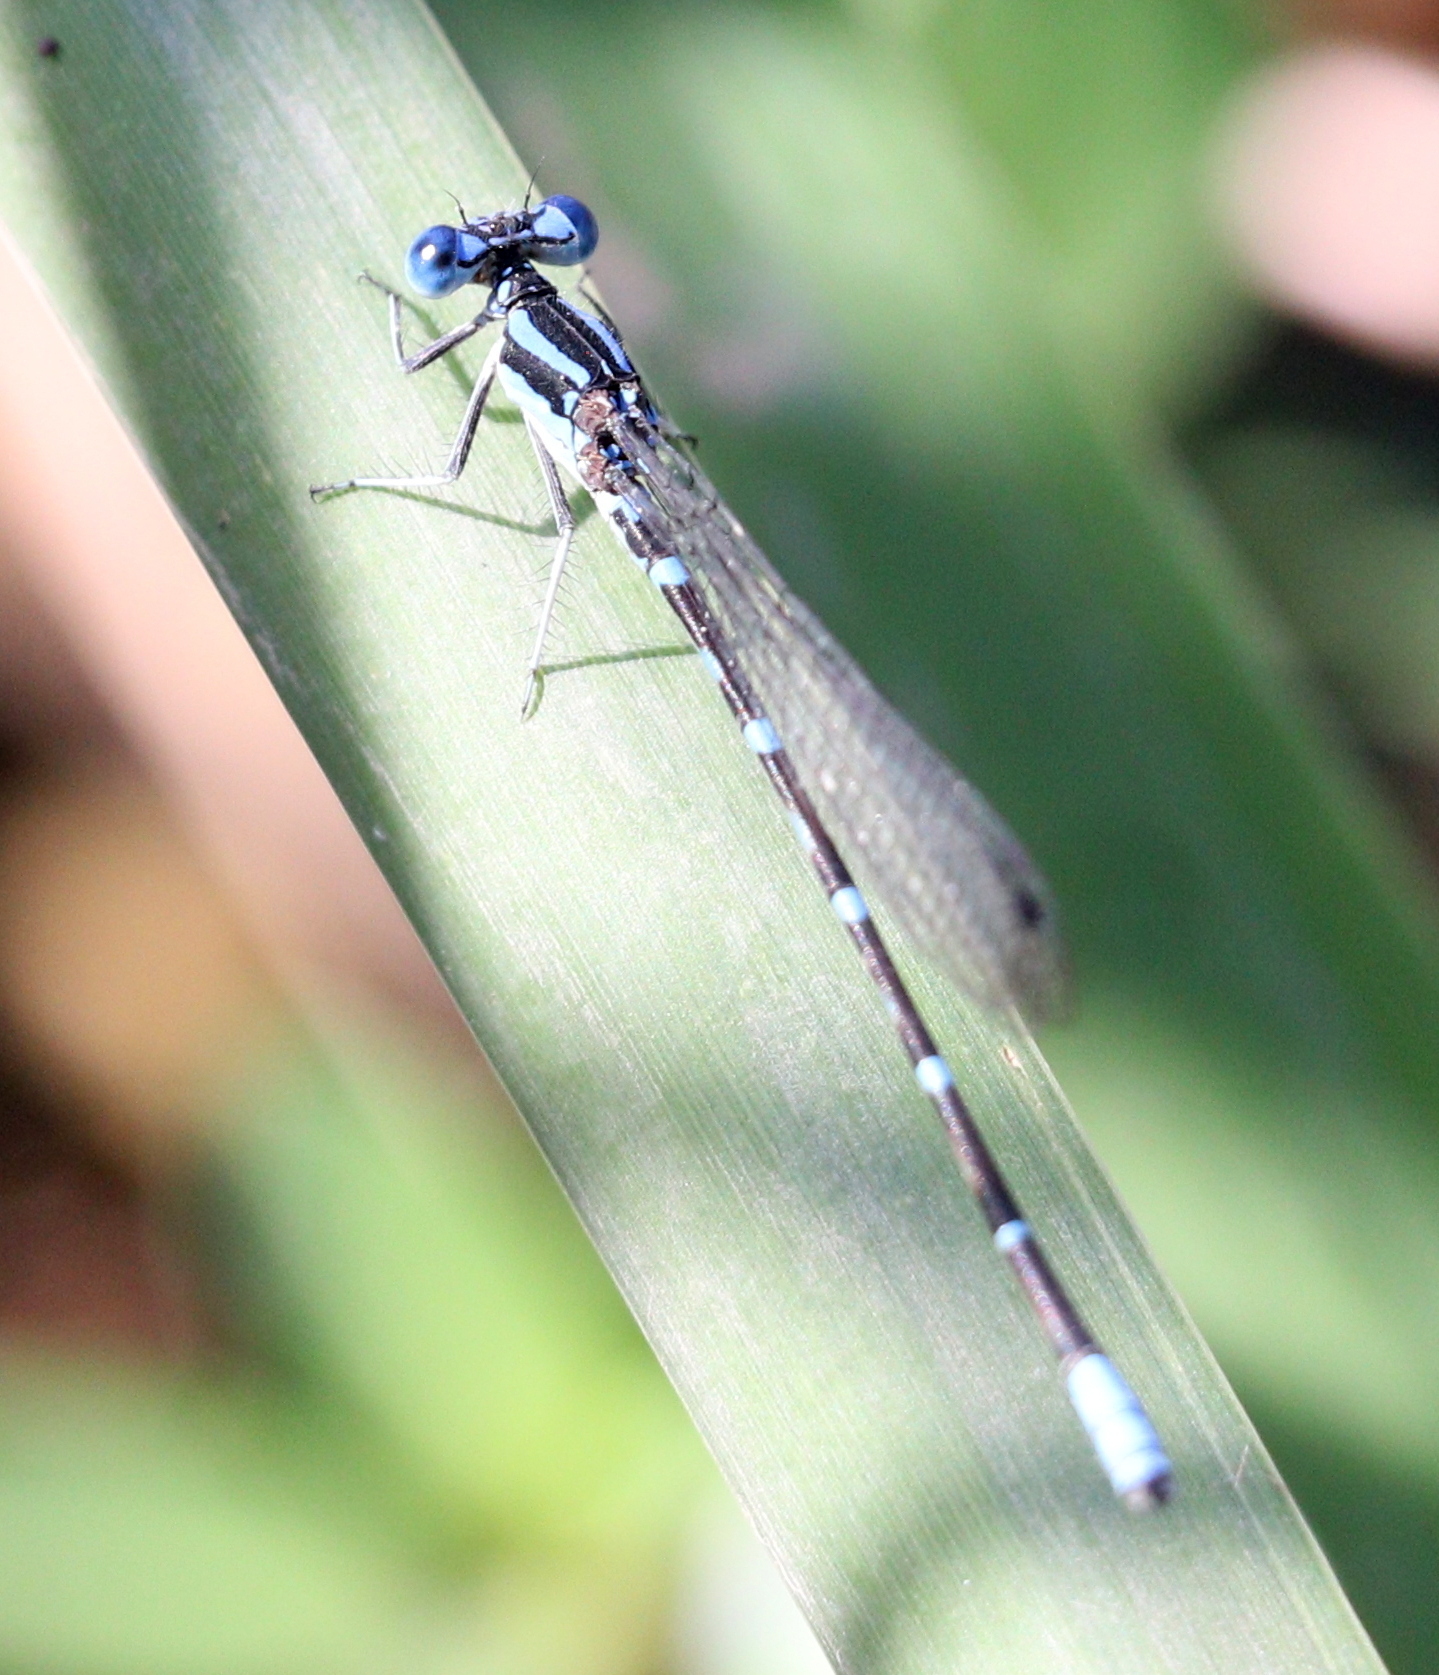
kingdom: Animalia
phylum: Arthropoda
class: Insecta
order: Odonata
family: Coenagrionidae
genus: Argia
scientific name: Argia sedula
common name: Blue-ringed dancer
